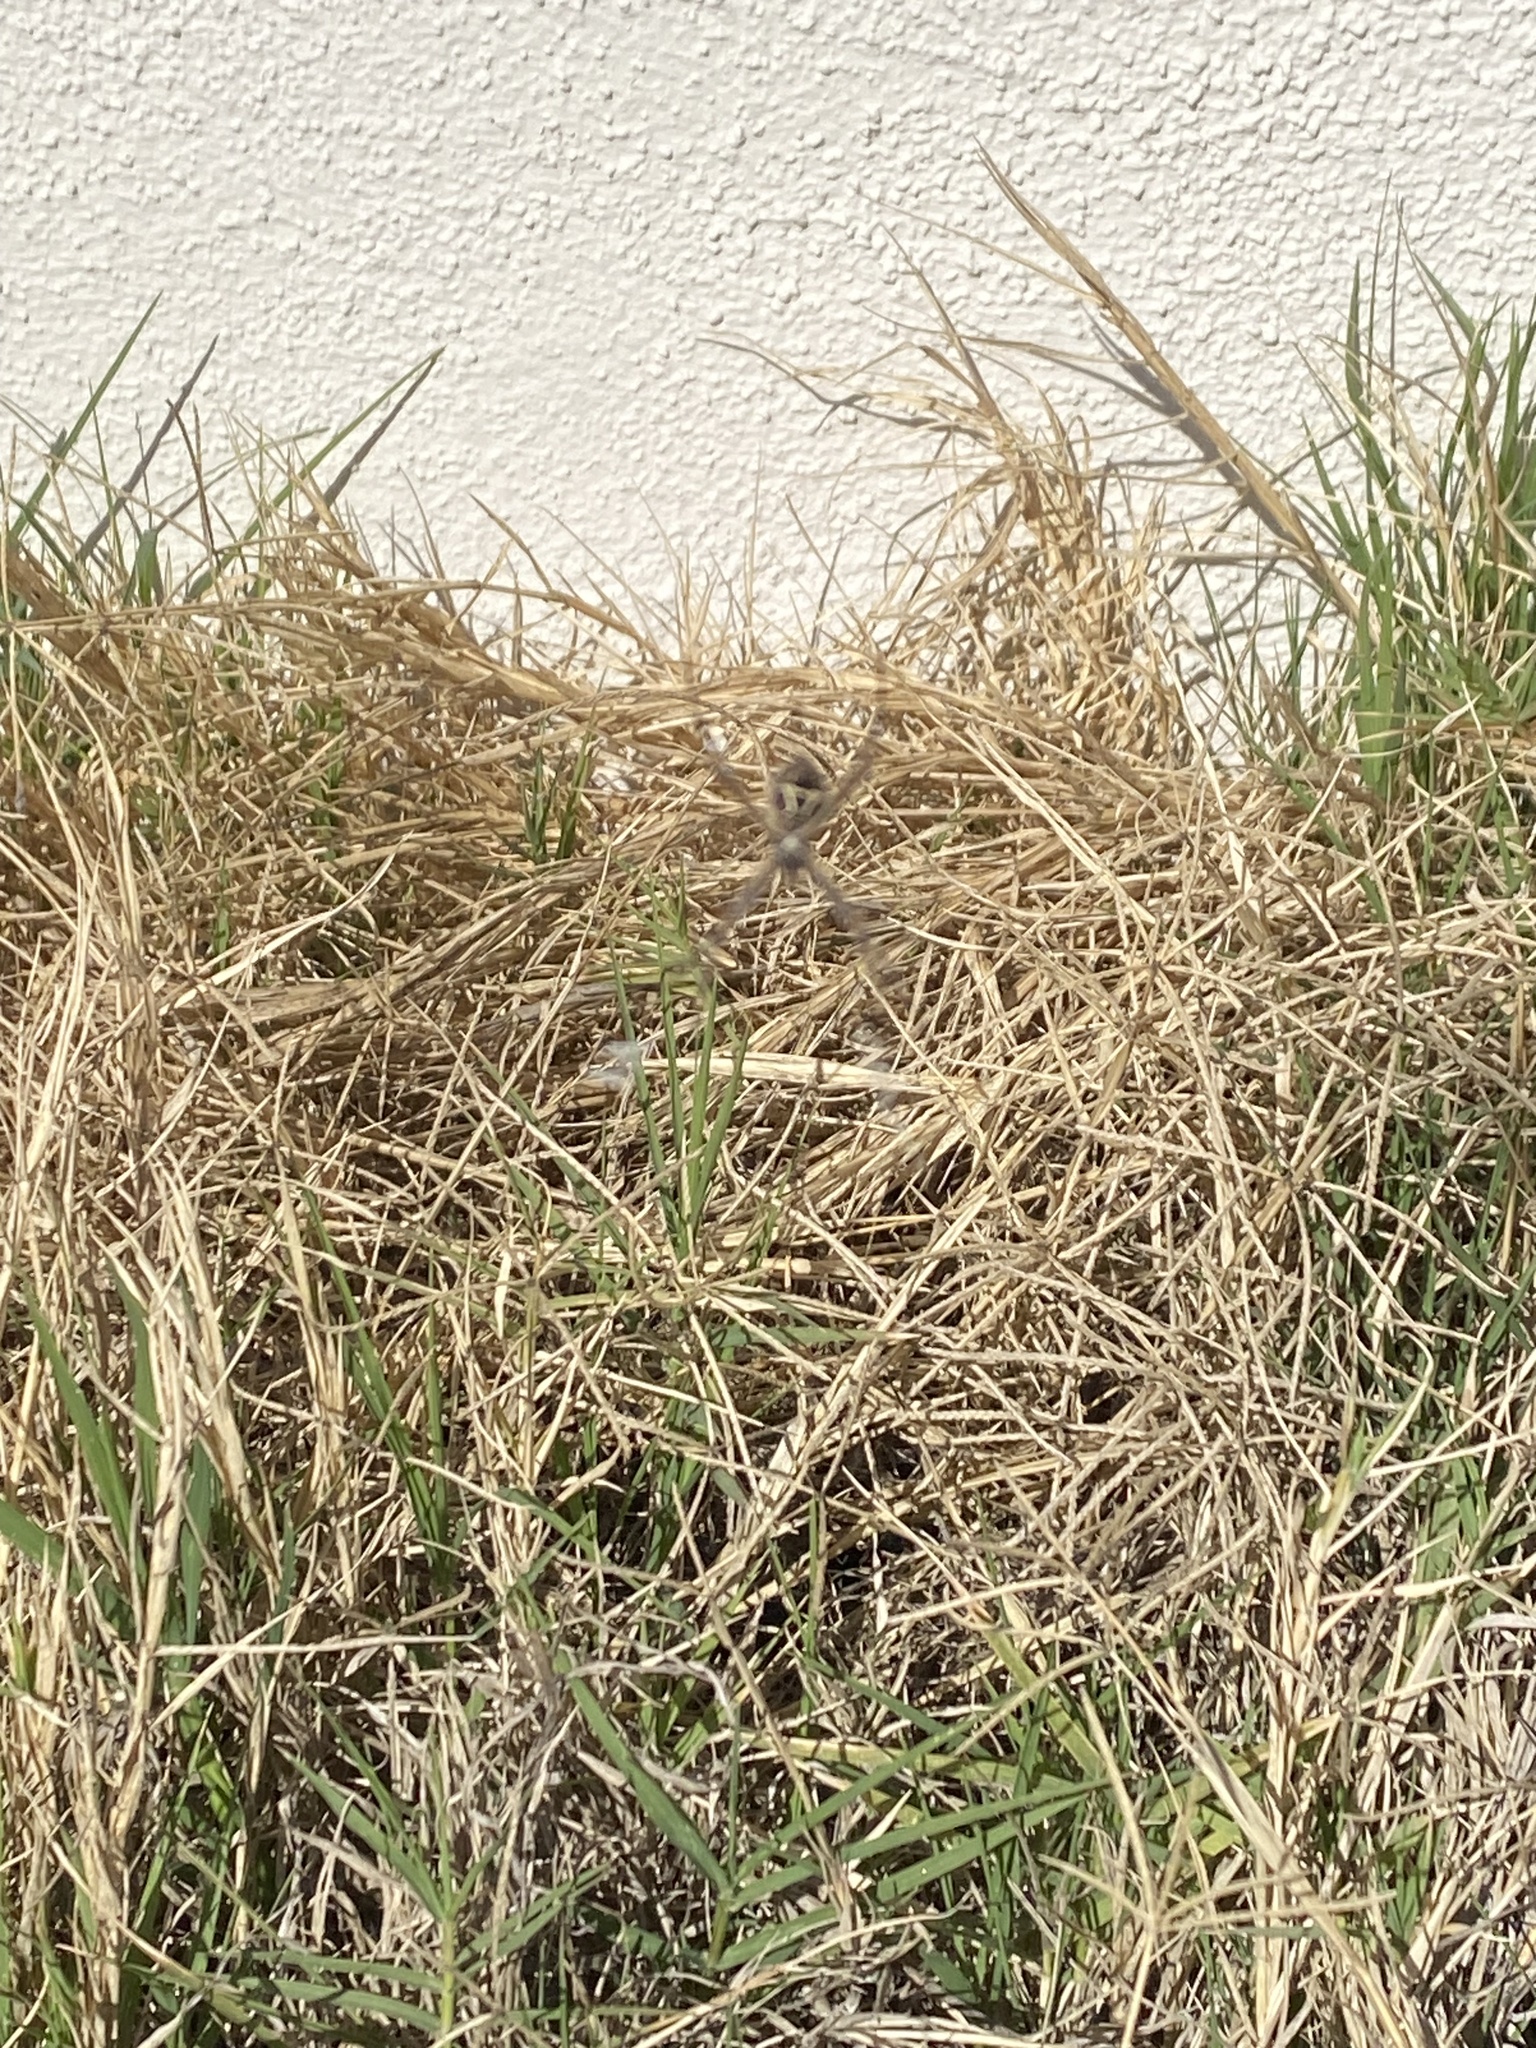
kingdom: Animalia
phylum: Arthropoda
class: Arachnida
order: Araneae
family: Araneidae
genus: Argiope
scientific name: Argiope argentata
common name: Orb weavers
